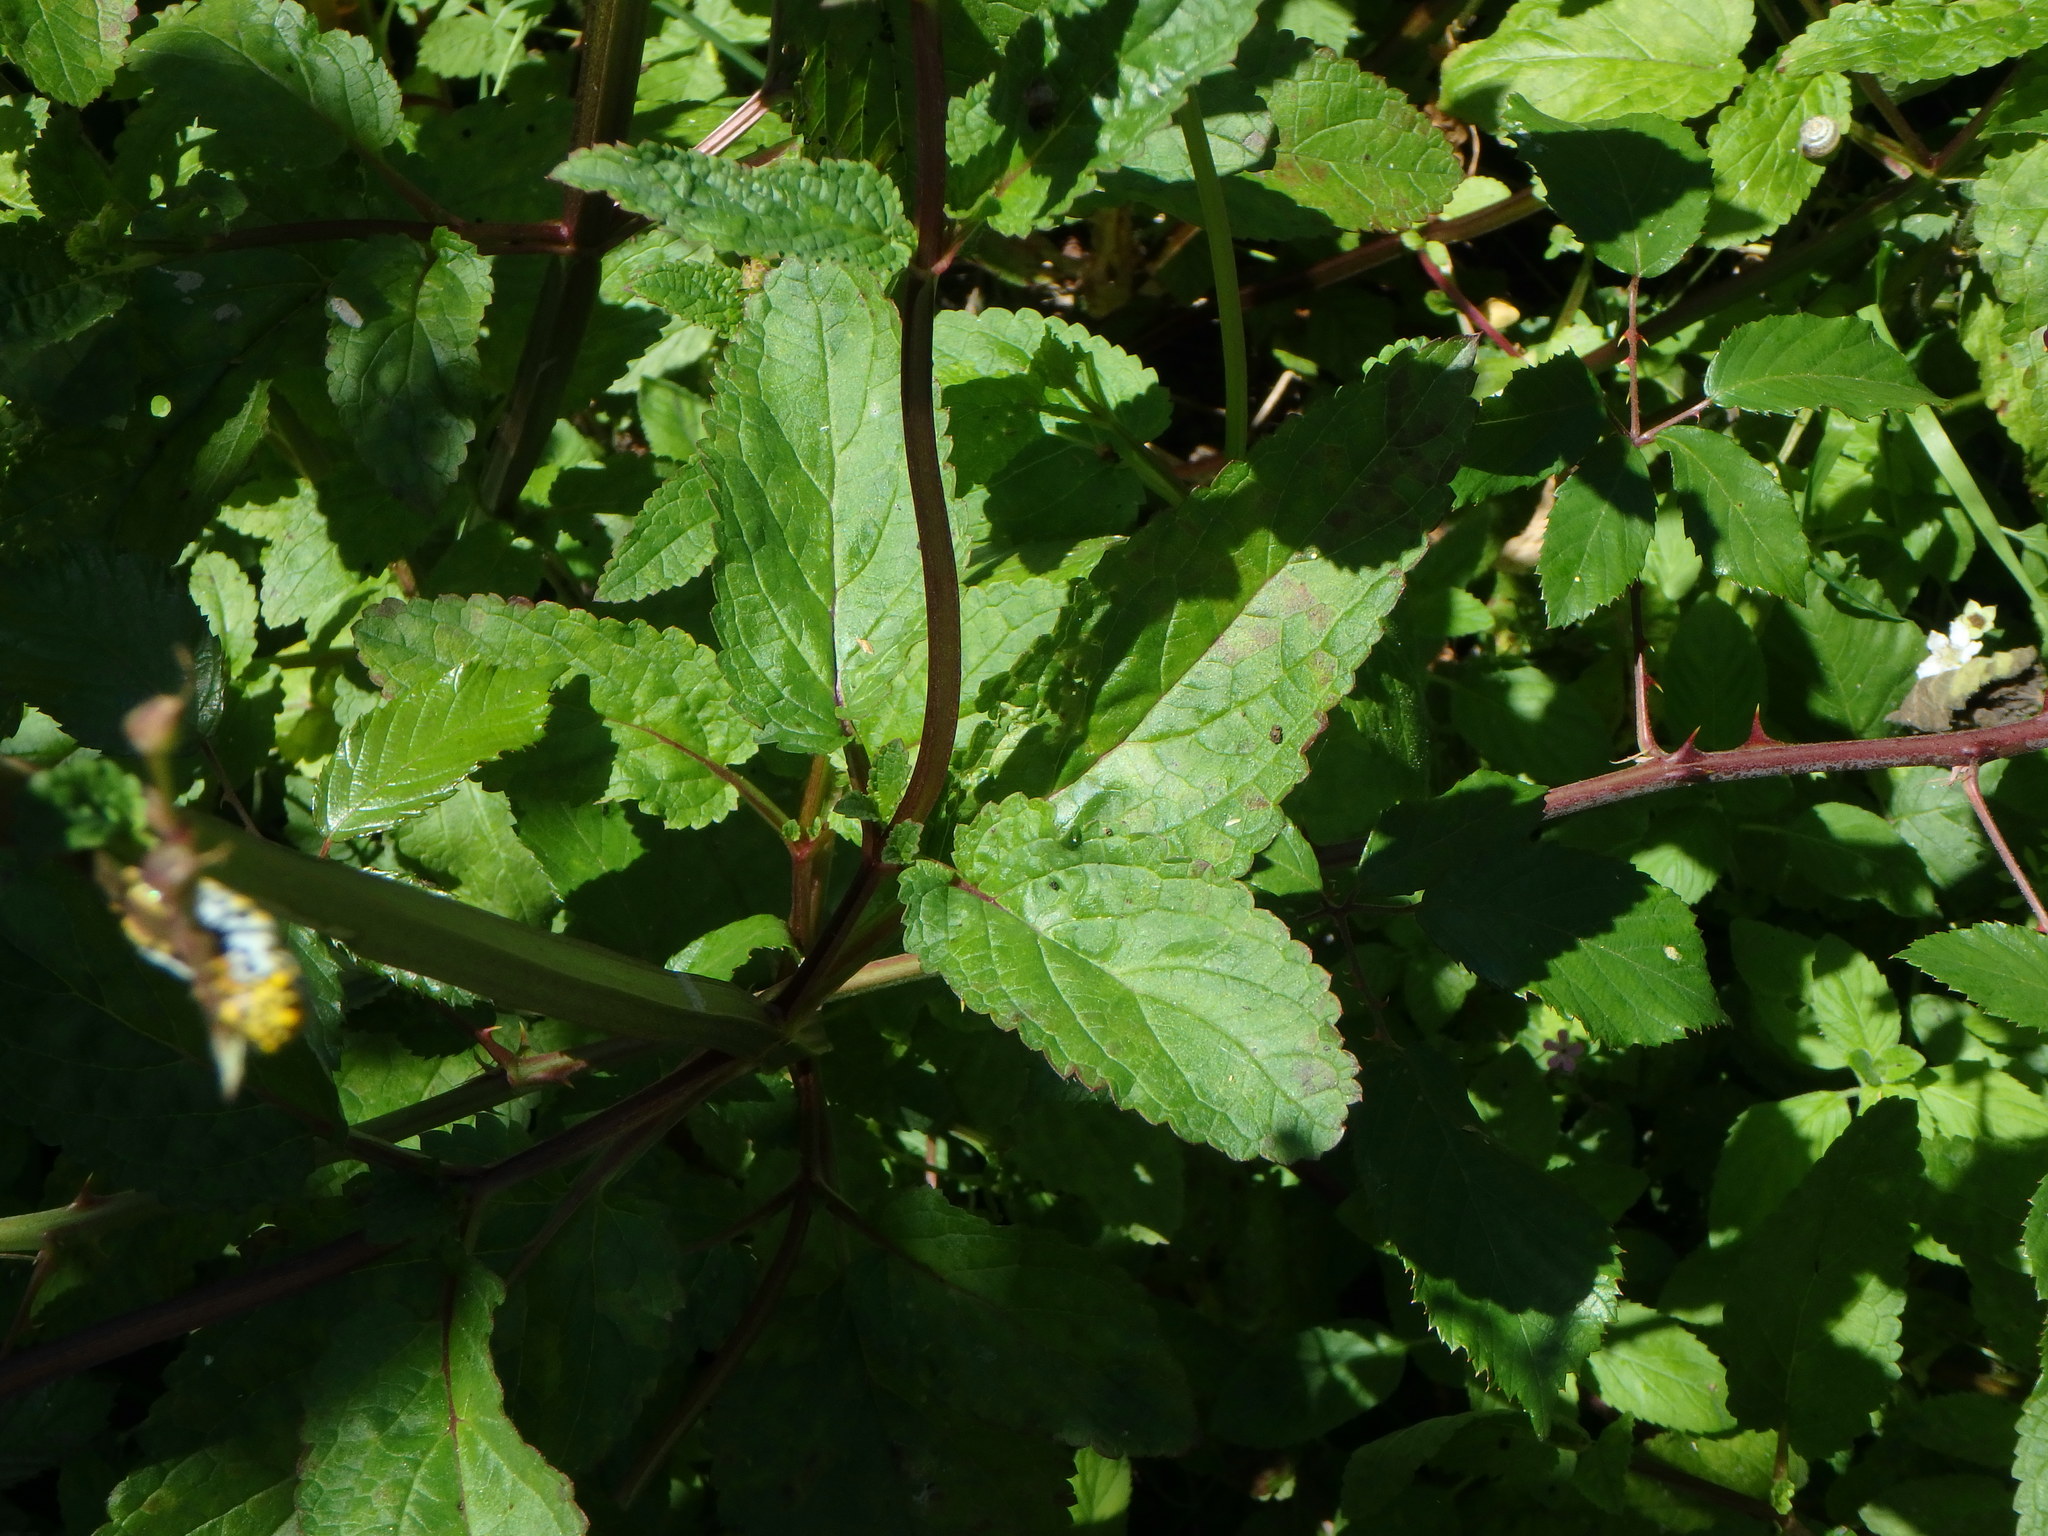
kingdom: Plantae
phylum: Tracheophyta
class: Magnoliopsida
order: Lamiales
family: Scrophulariaceae
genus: Scrophularia
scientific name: Scrophularia nodosa
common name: Common figwort
